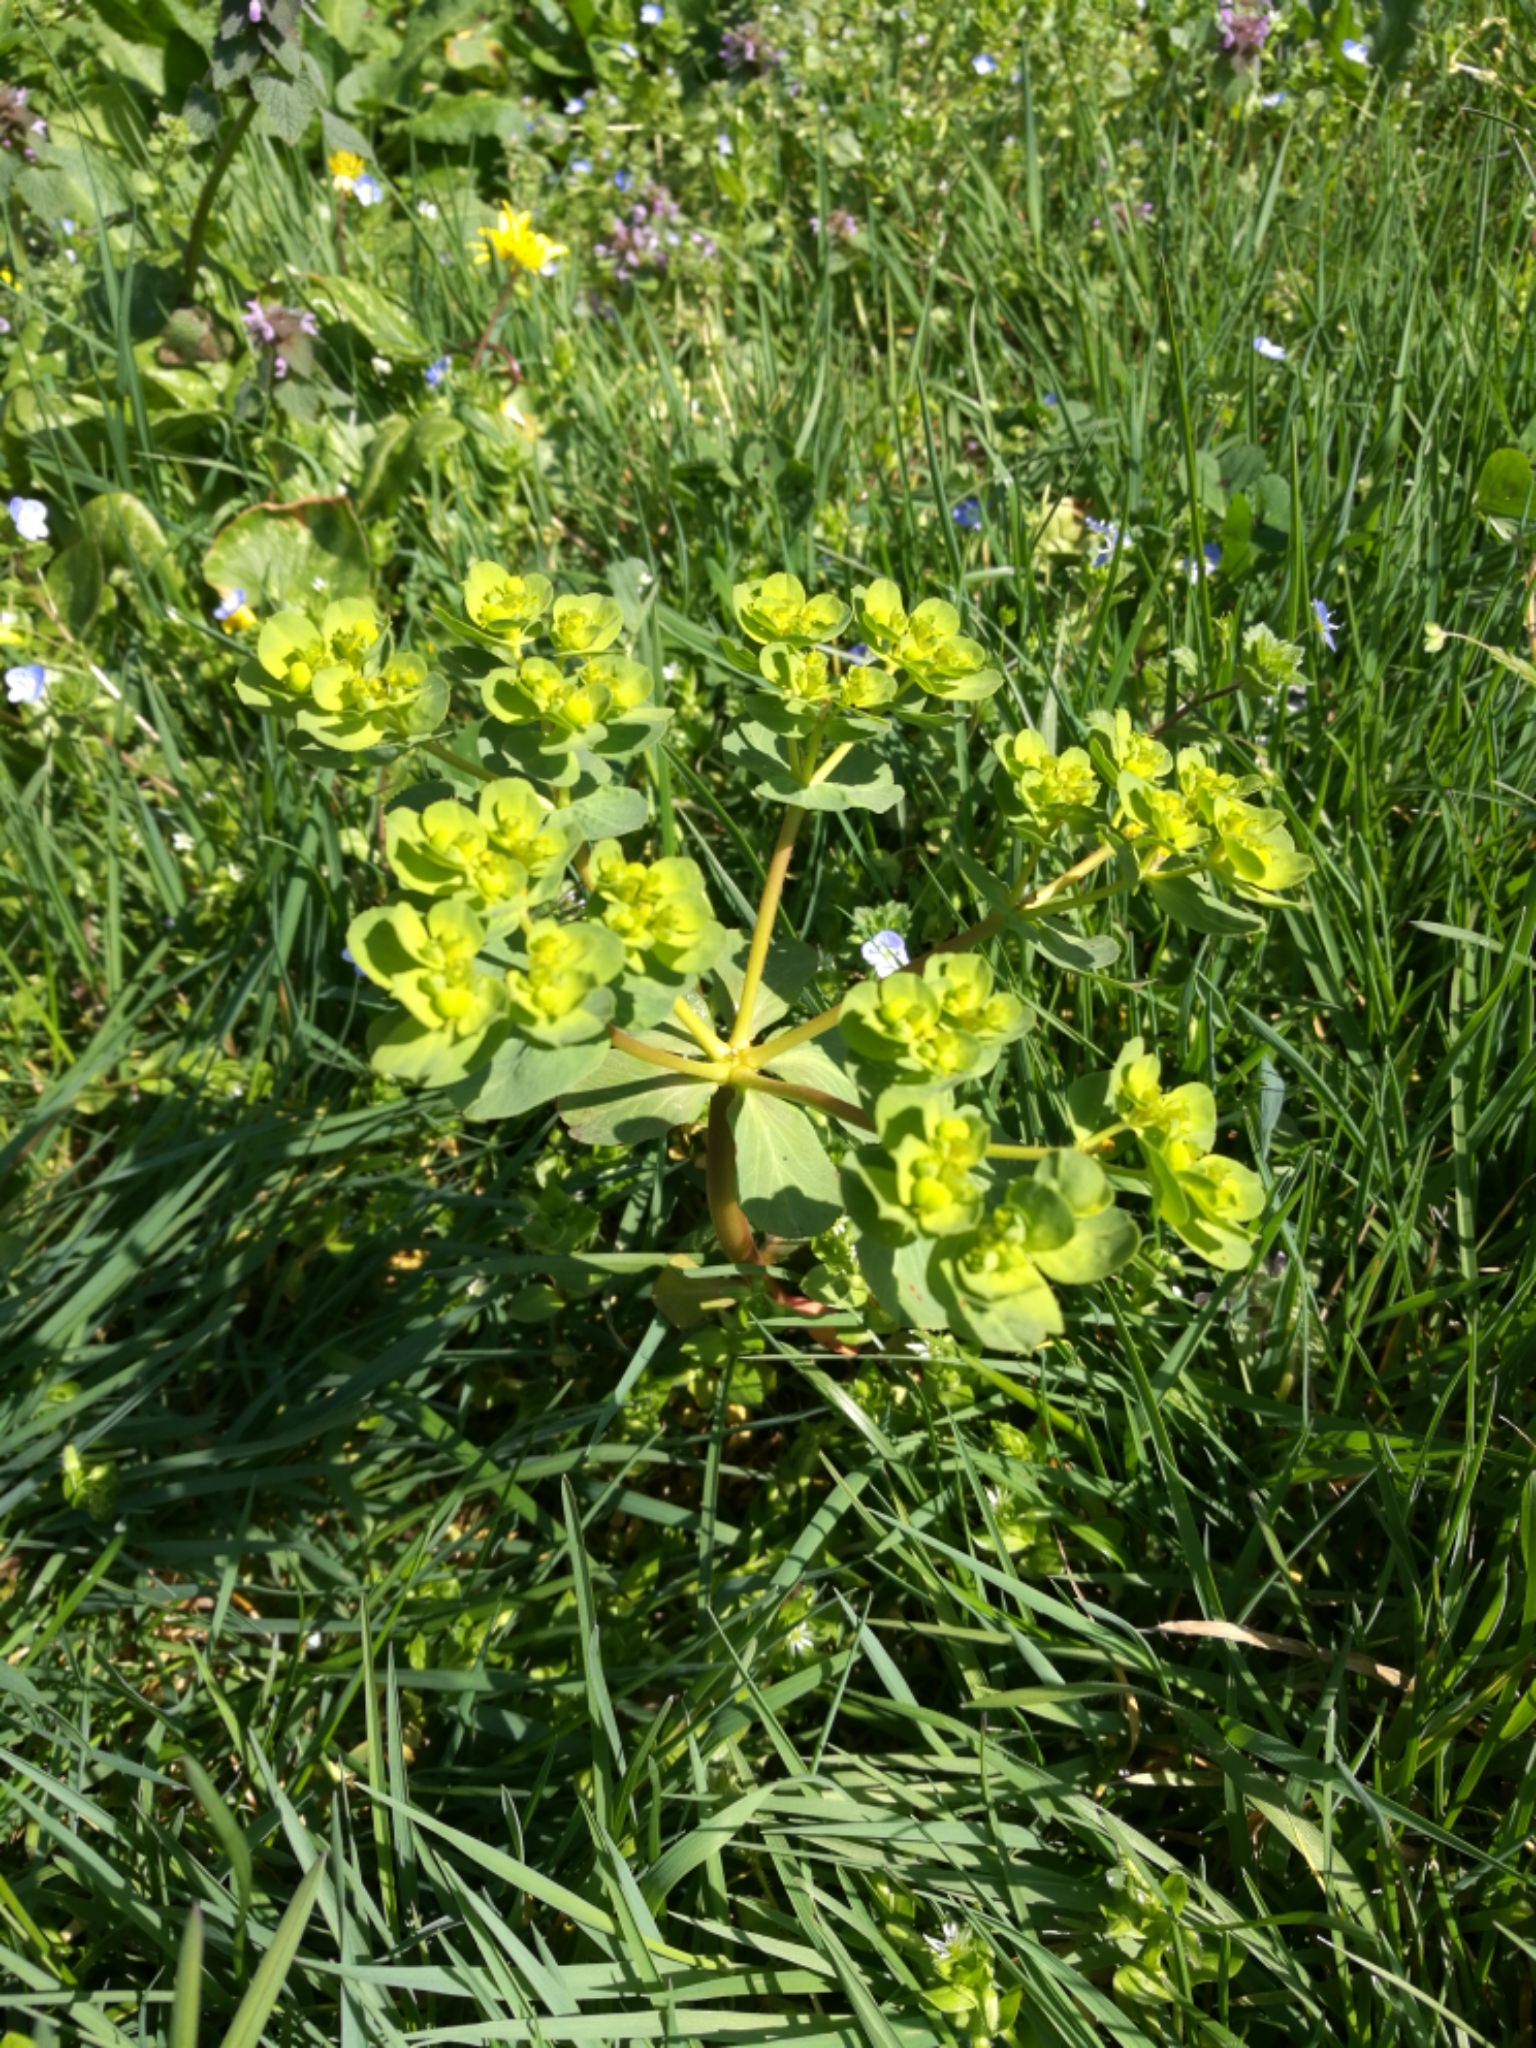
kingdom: Plantae
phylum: Tracheophyta
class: Magnoliopsida
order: Malpighiales
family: Euphorbiaceae
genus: Euphorbia
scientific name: Euphorbia helioscopia
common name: Sun spurge
